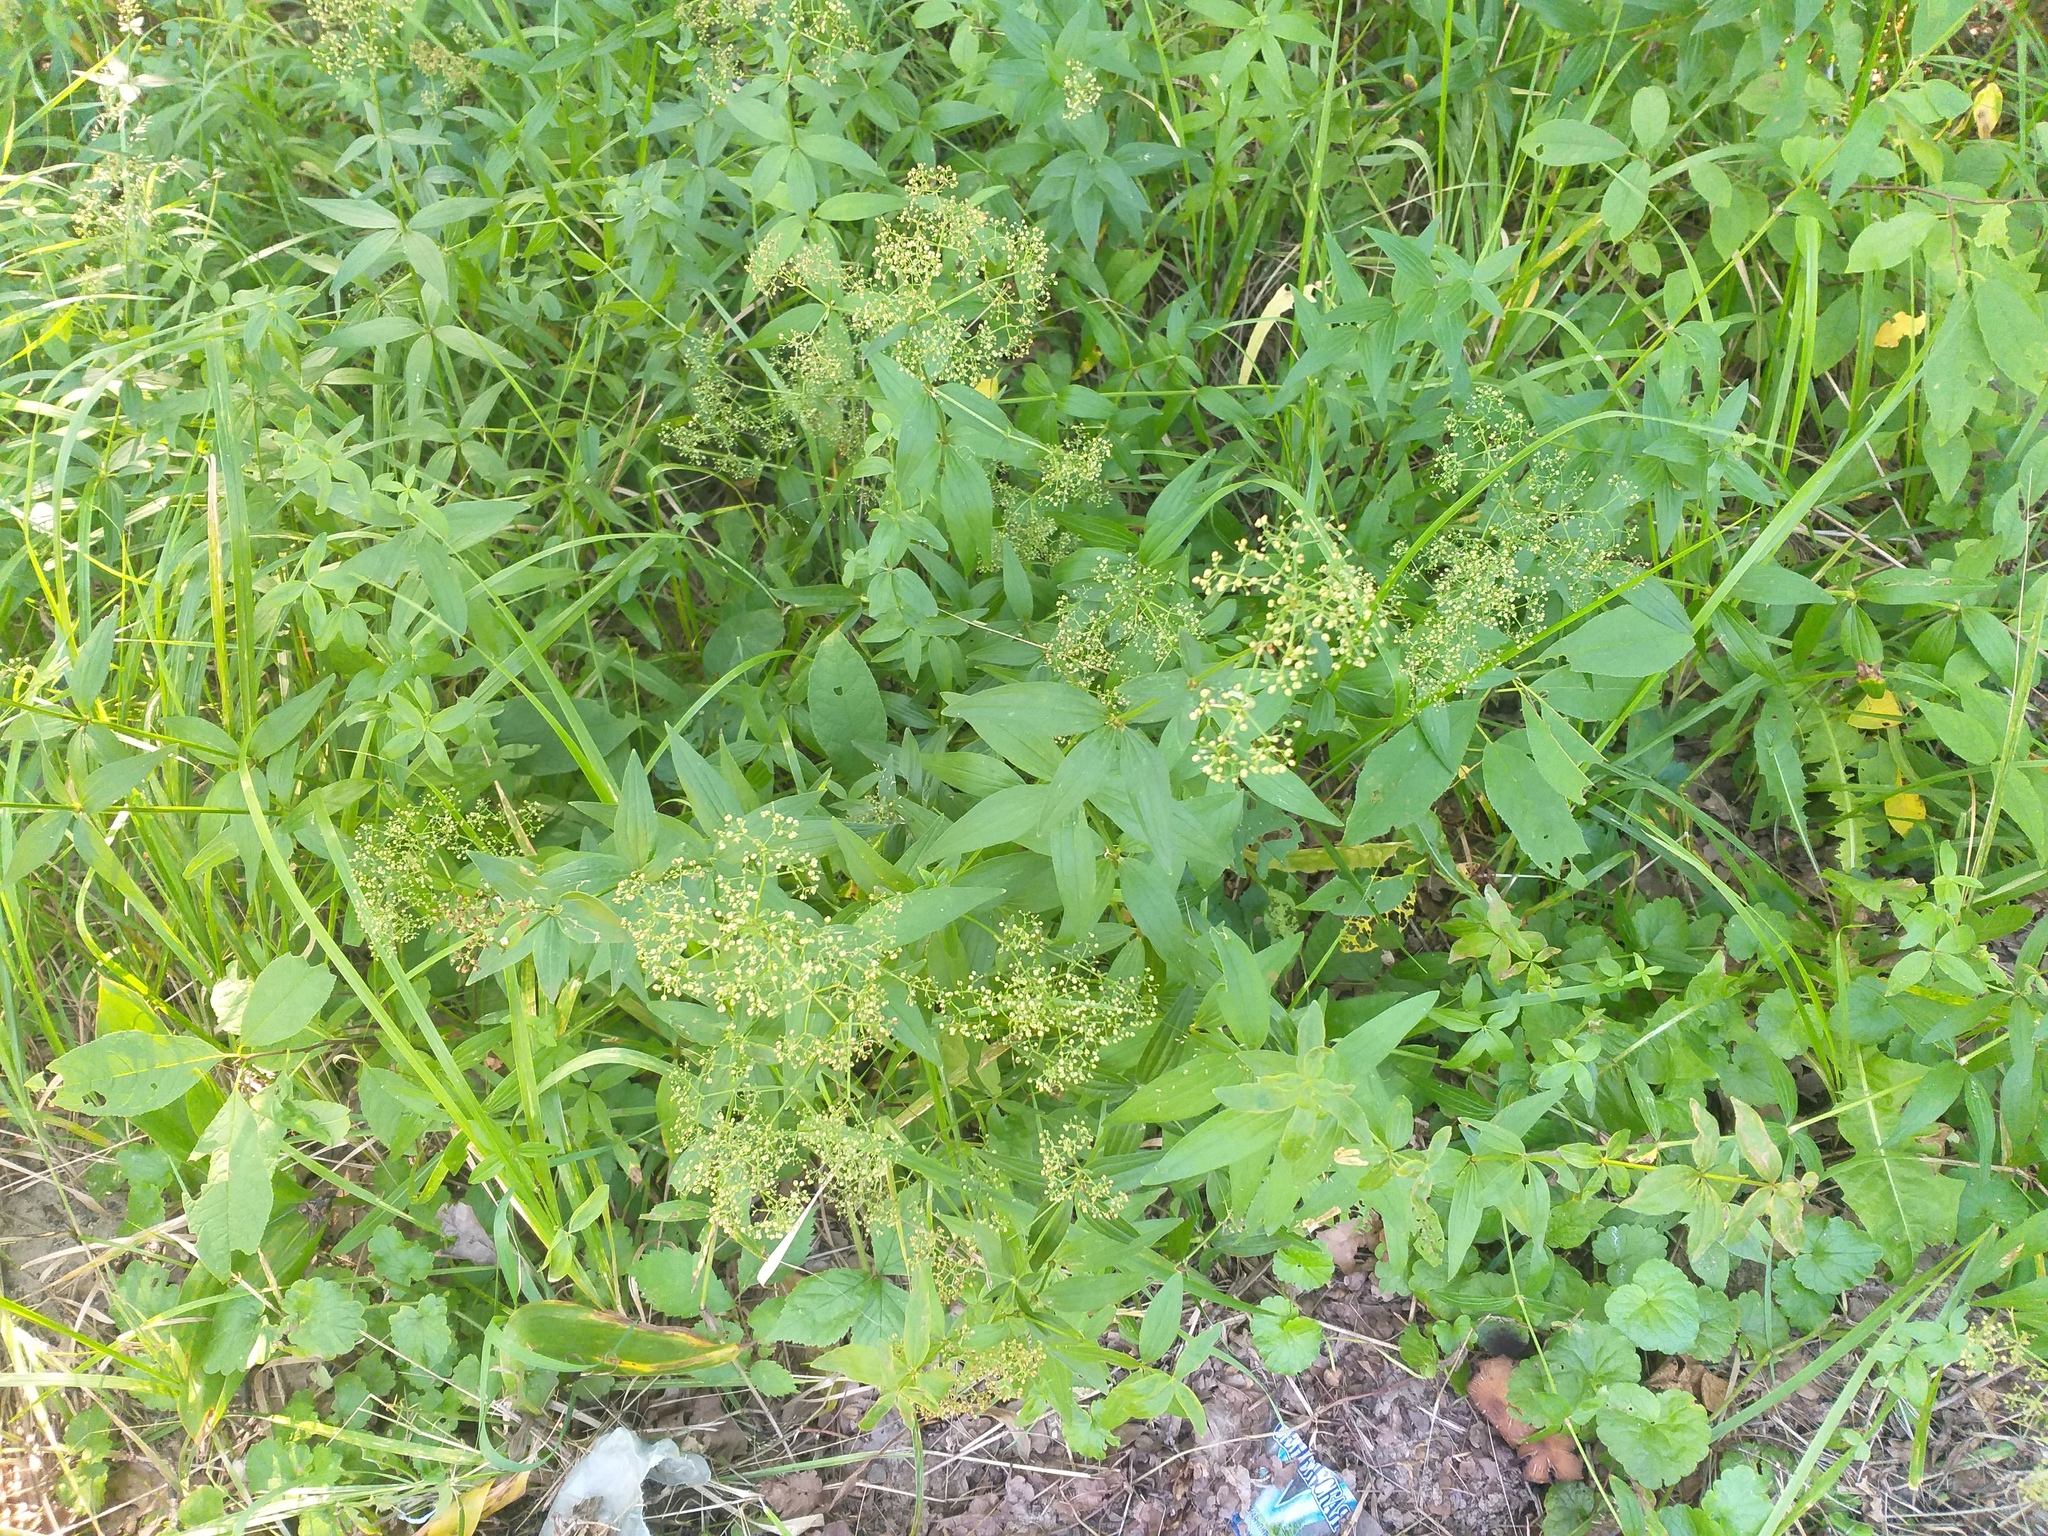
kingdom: Plantae
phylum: Tracheophyta
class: Magnoliopsida
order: Gentianales
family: Rubiaceae
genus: Galium
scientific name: Galium rubioides
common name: European bedstraw
